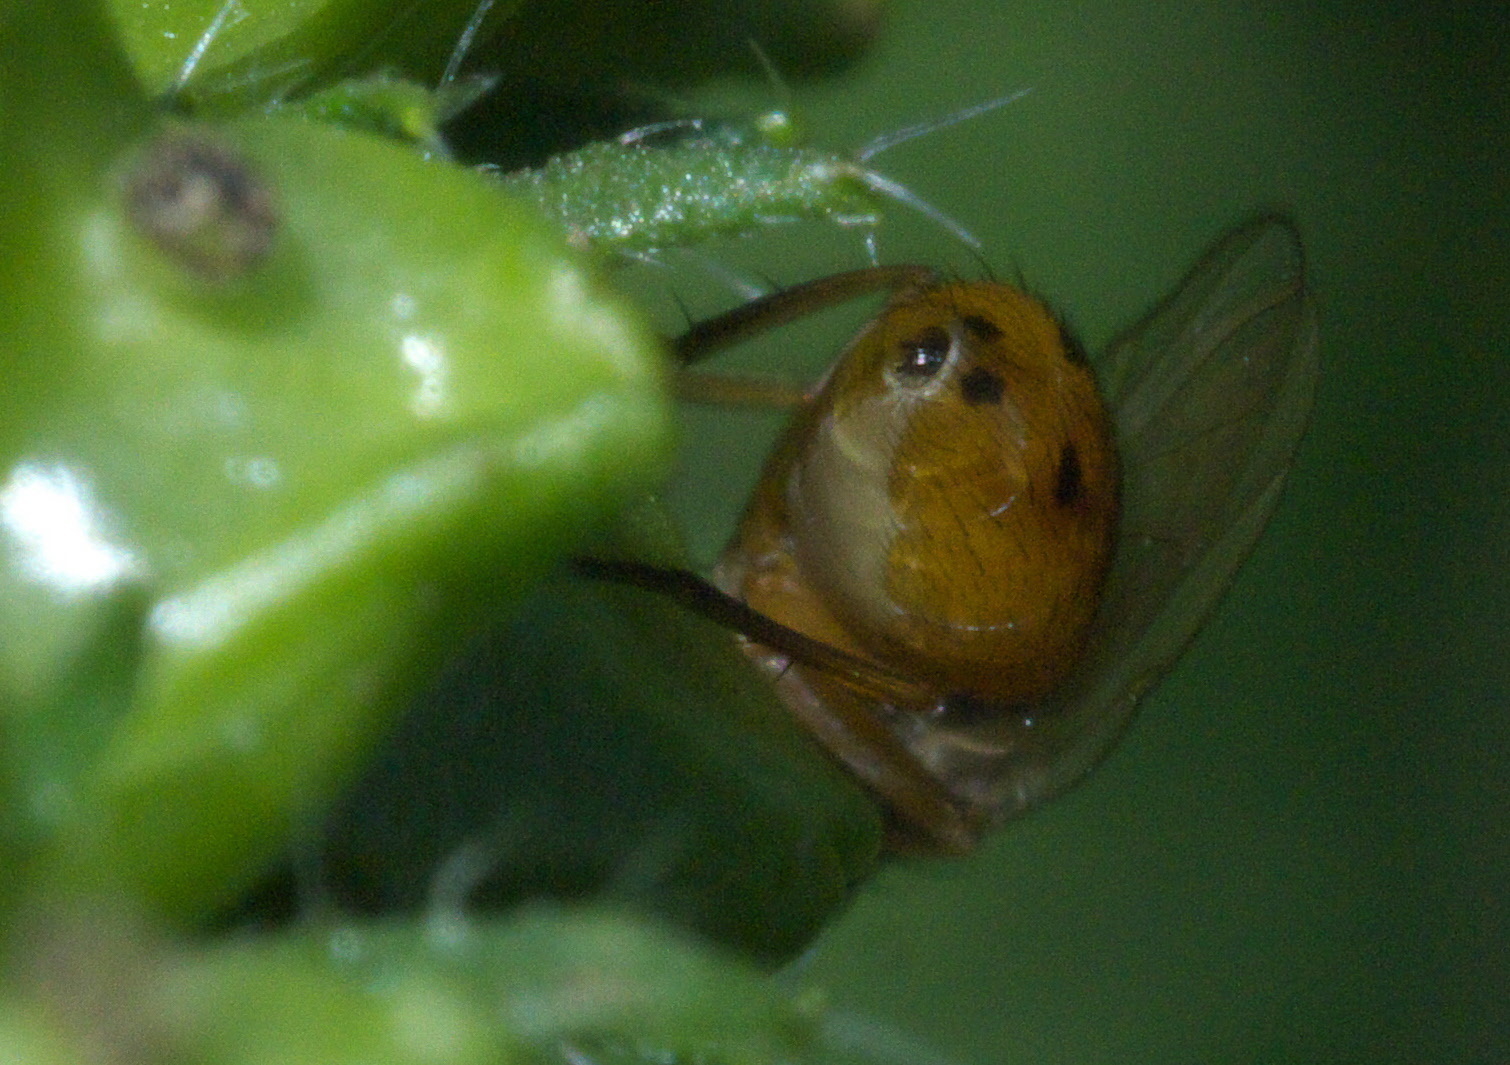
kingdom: Animalia
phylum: Arthropoda
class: Insecta
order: Diptera
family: Muscidae
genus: Atherigona
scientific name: Atherigona reversura
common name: Bermudagrass stem maggot
